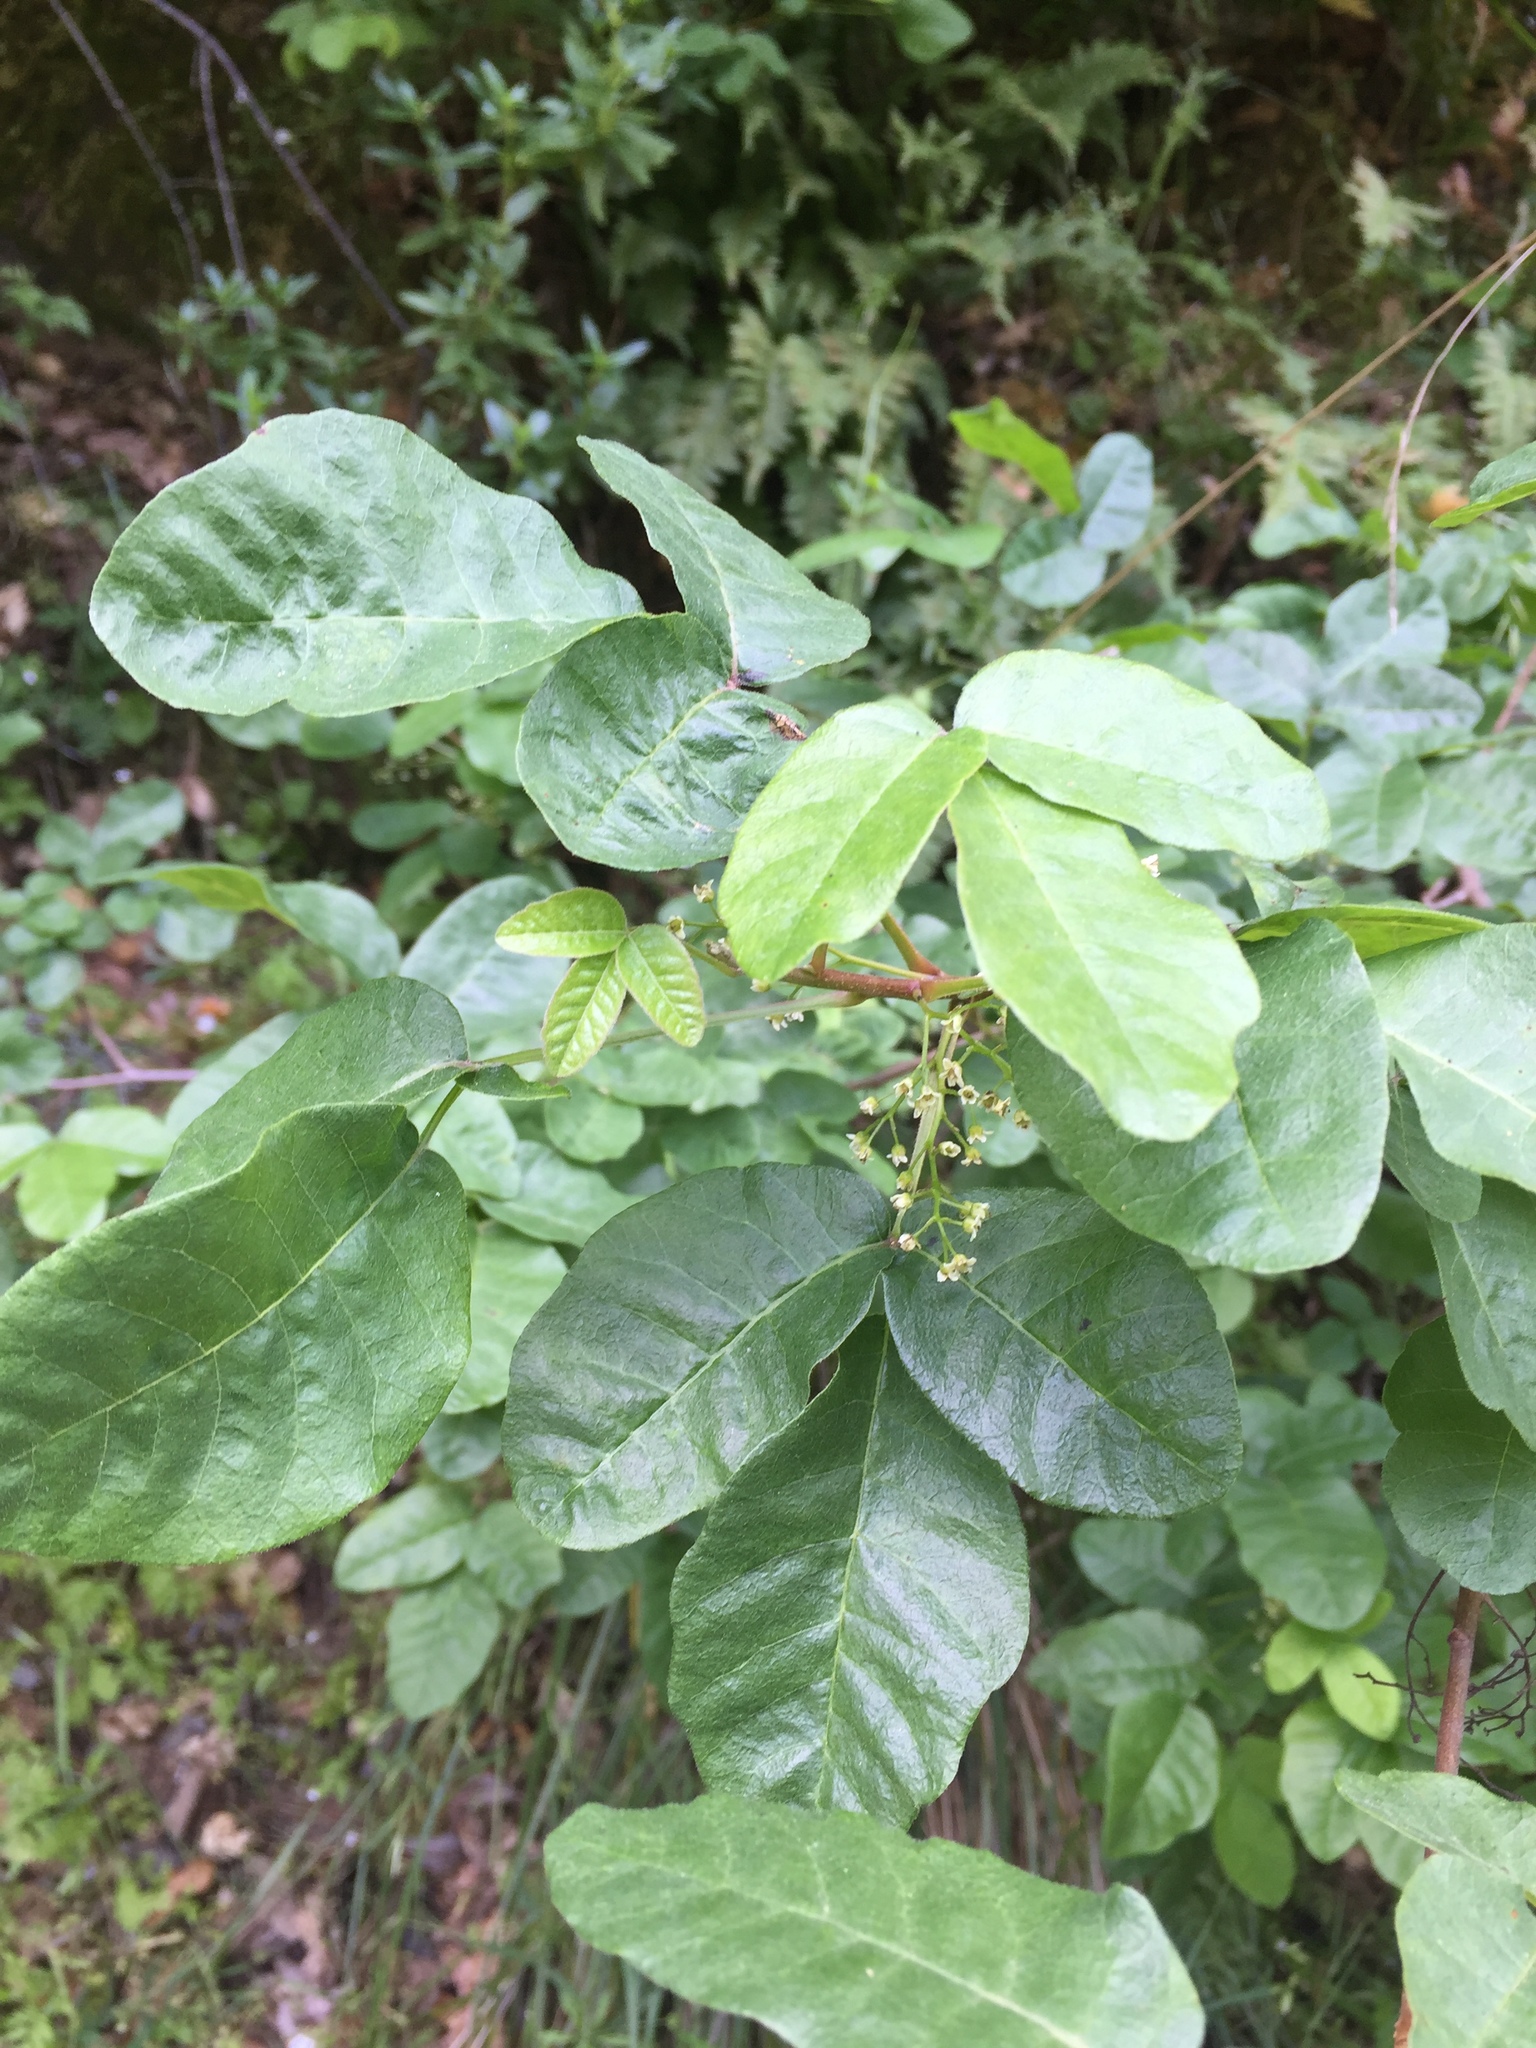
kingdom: Plantae
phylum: Tracheophyta
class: Magnoliopsida
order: Sapindales
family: Anacardiaceae
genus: Toxicodendron
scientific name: Toxicodendron diversilobum
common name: Pacific poison-oak
